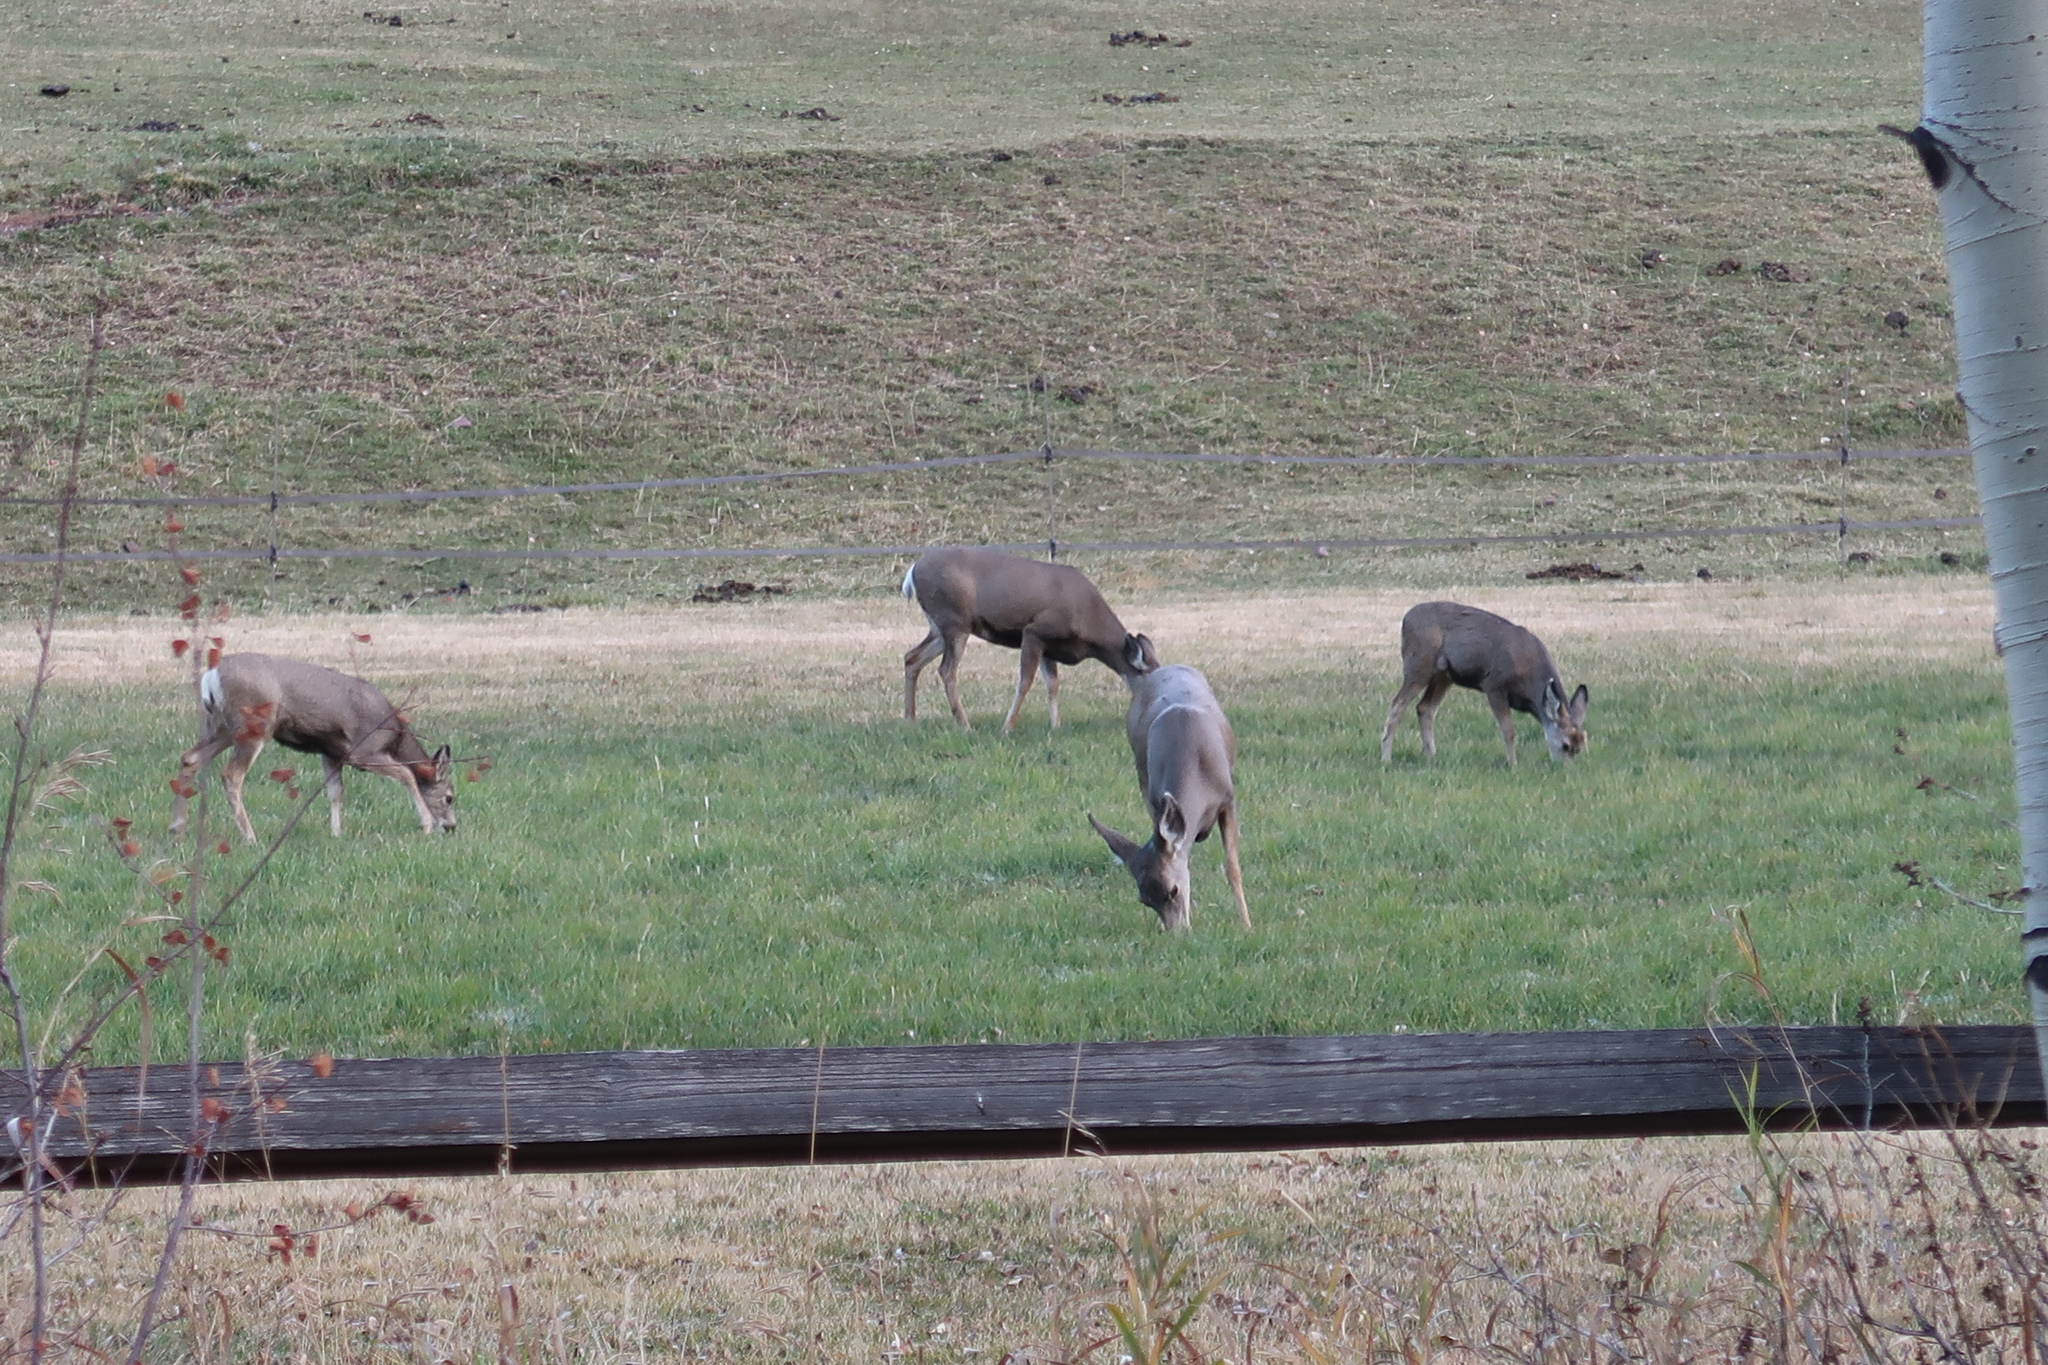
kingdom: Animalia
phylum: Chordata
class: Mammalia
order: Artiodactyla
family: Cervidae
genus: Odocoileus
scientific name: Odocoileus hemionus
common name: Mule deer
